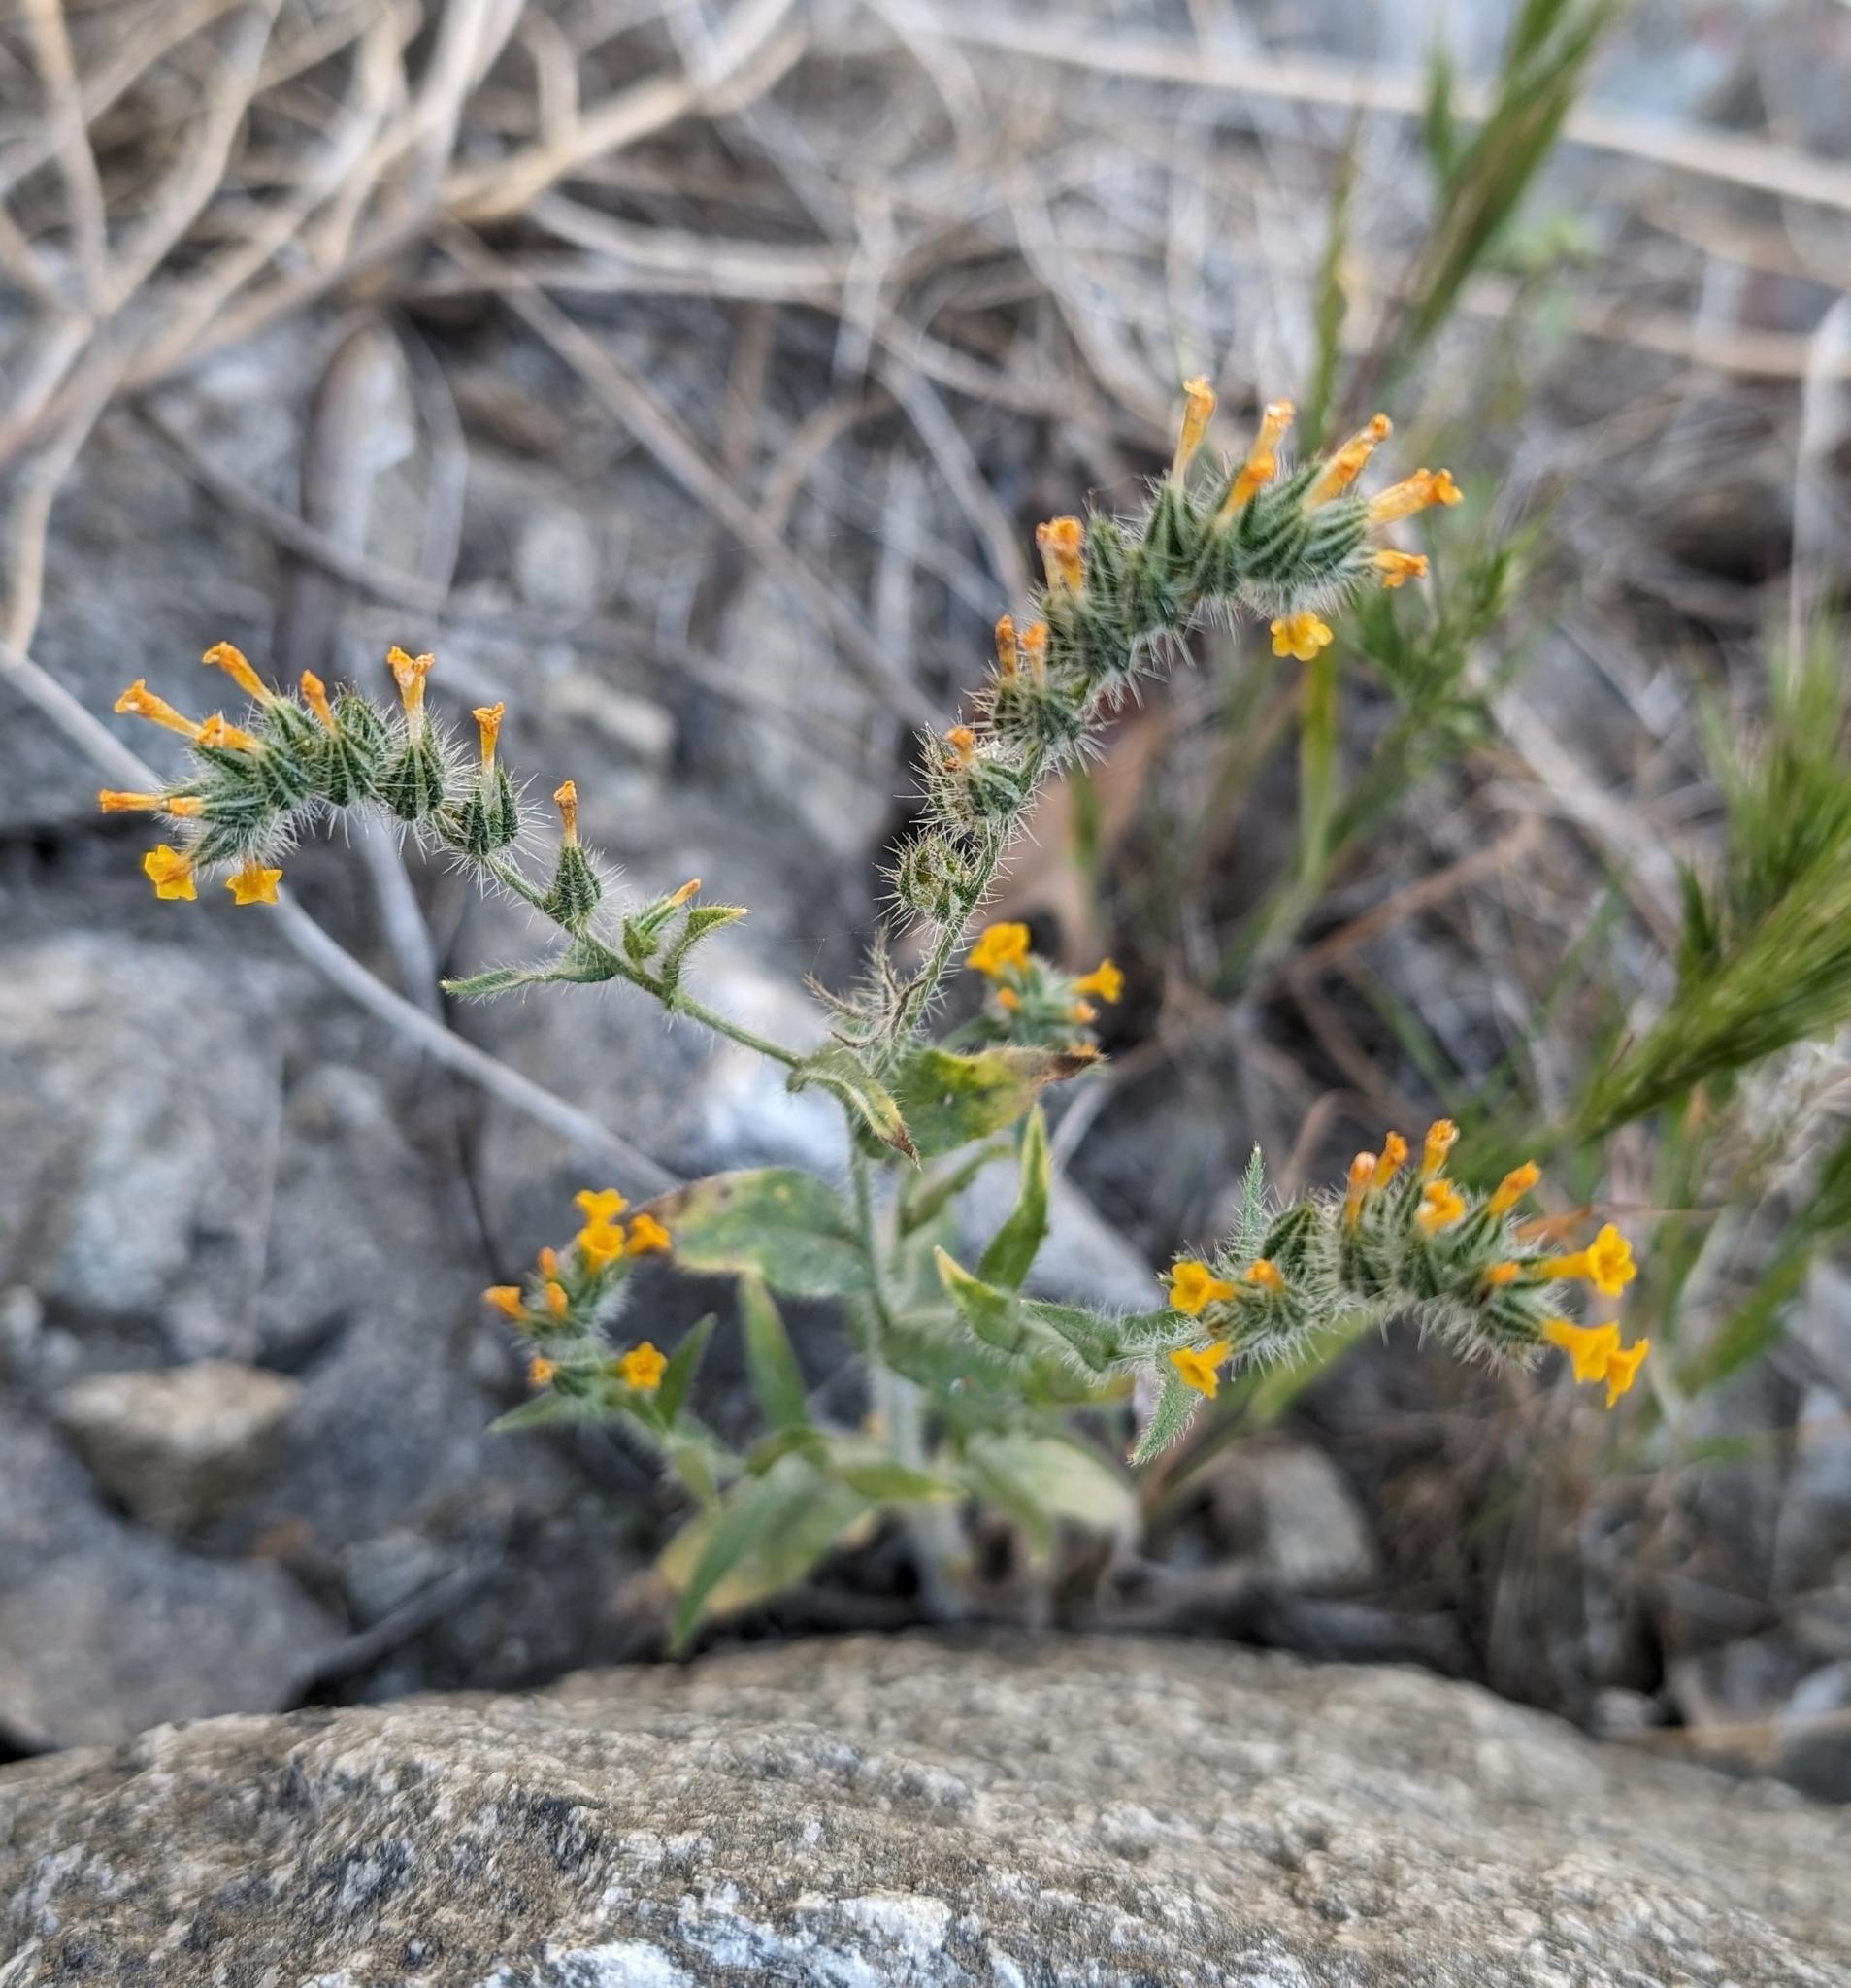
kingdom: Plantae
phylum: Tracheophyta
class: Magnoliopsida
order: Boraginales
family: Boraginaceae
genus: Amsinckia
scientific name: Amsinckia tessellata
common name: Tessellate fiddleneck
